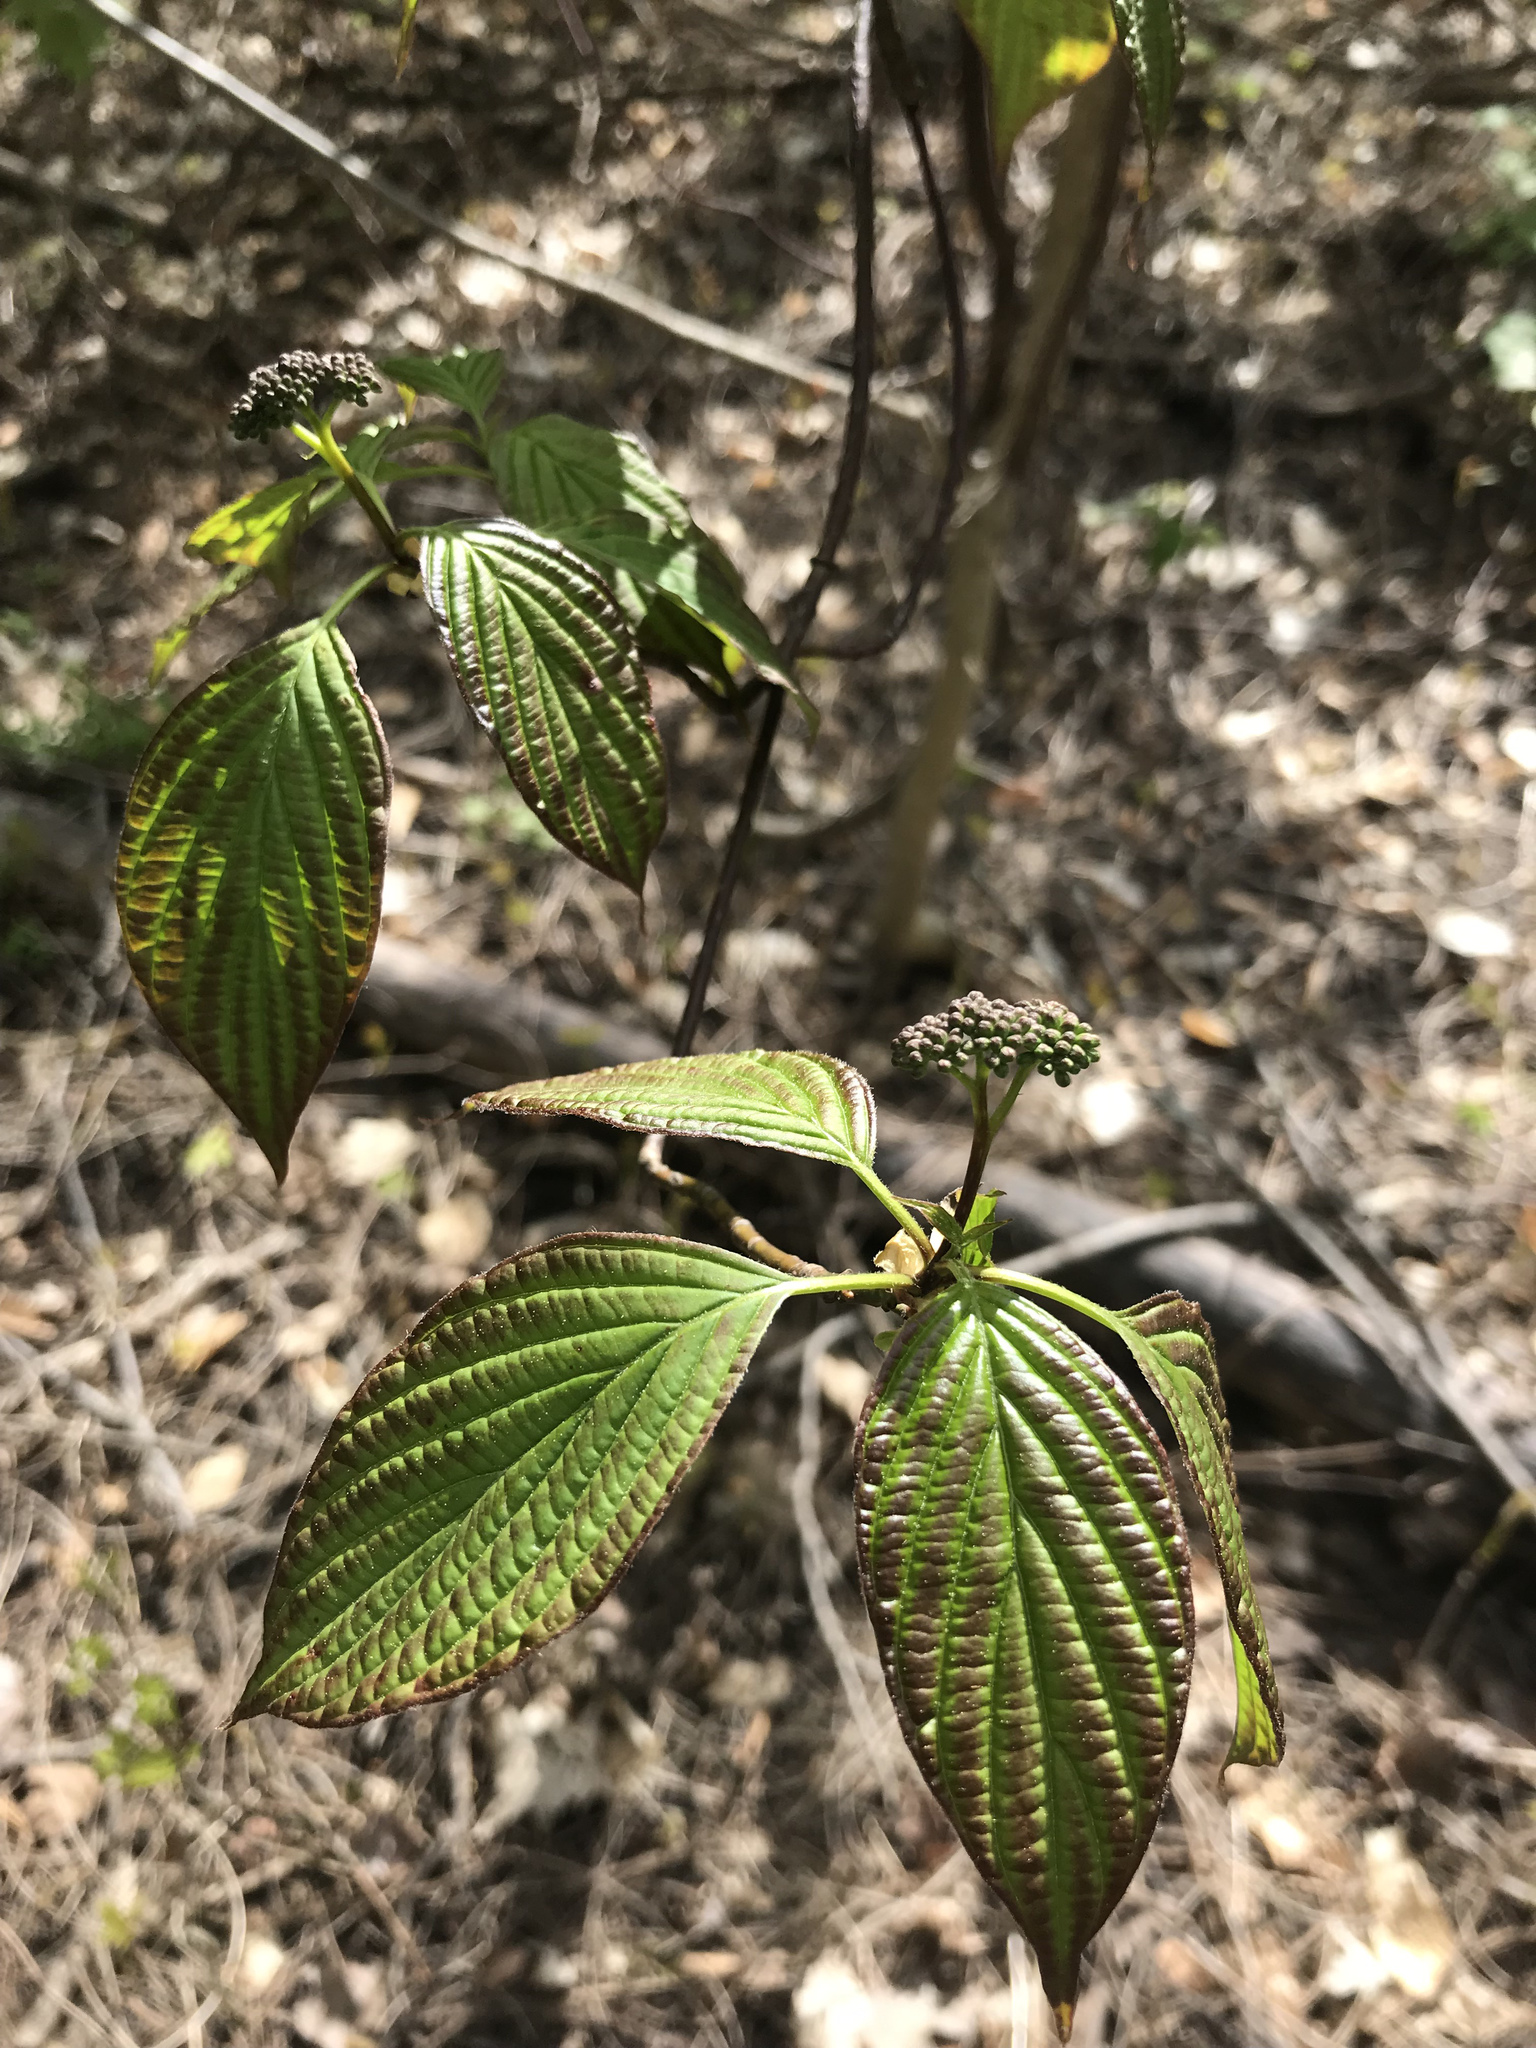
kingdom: Plantae
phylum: Tracheophyta
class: Magnoliopsida
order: Cornales
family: Cornaceae
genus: Cornus
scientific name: Cornus alternifolia
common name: Pagoda dogwood
